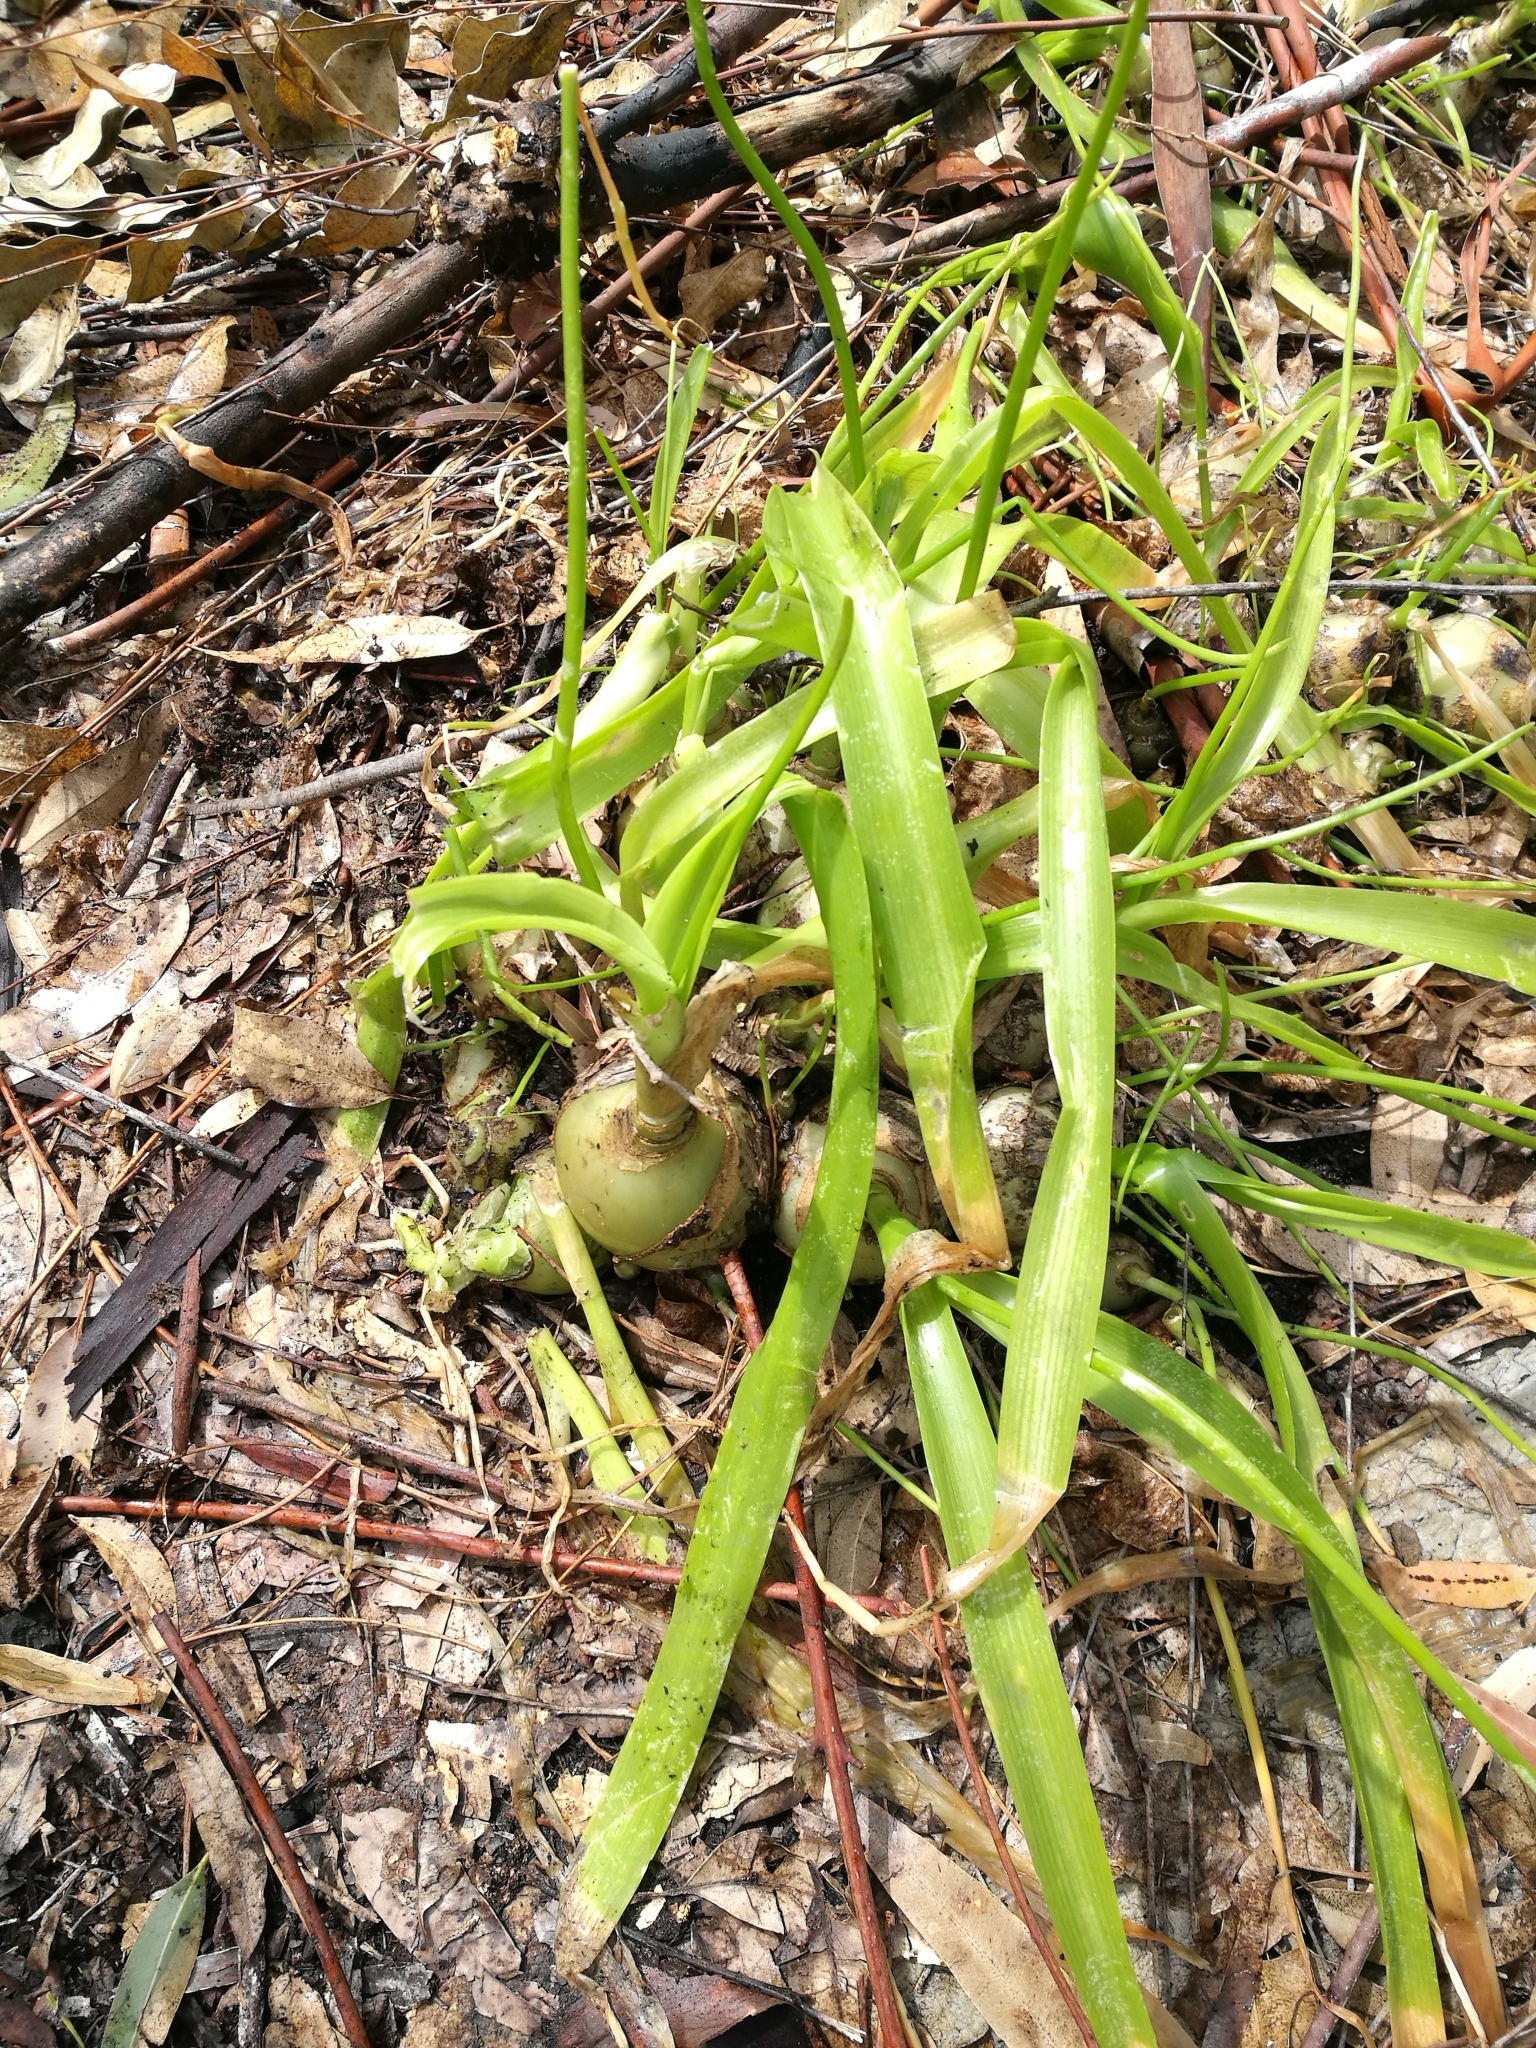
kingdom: Plantae
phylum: Tracheophyta
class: Liliopsida
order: Asparagales
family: Asparagaceae
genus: Albuca
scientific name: Albuca bracteata
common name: Sea-onion
